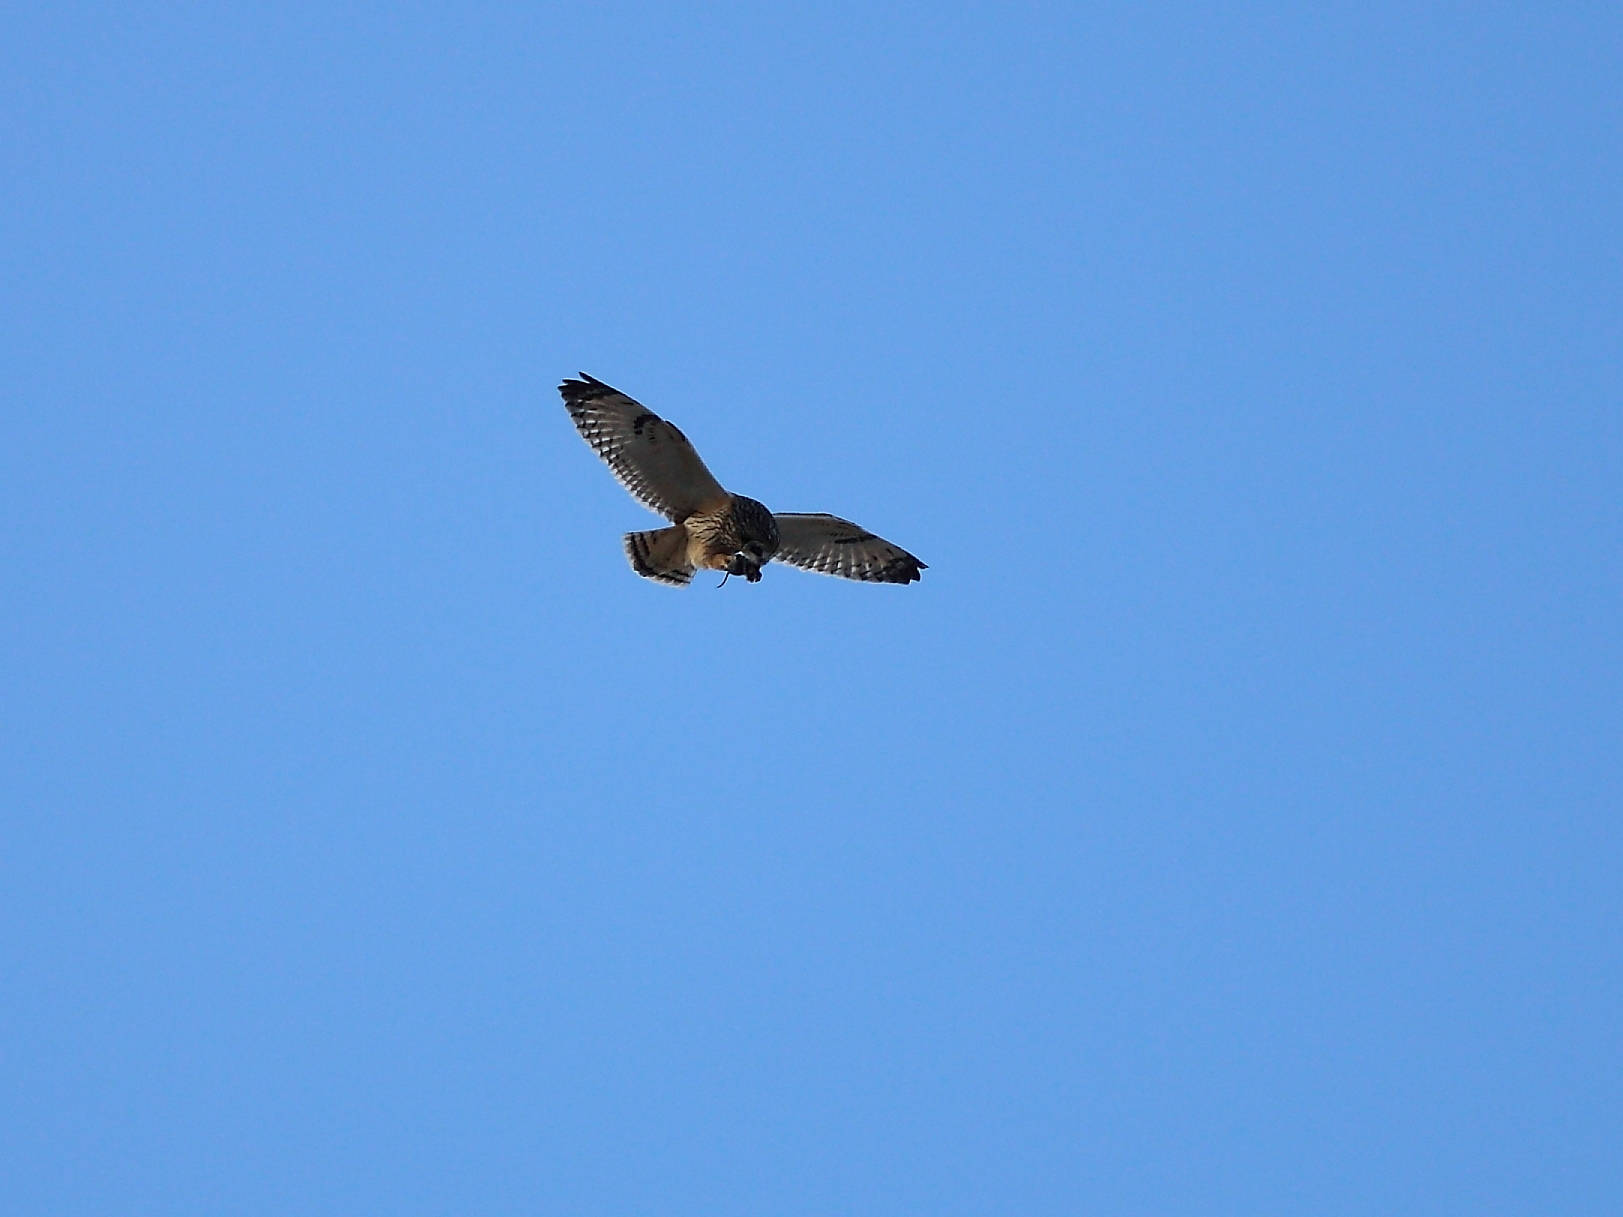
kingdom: Animalia
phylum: Chordata
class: Aves
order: Strigiformes
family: Strigidae
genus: Asio
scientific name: Asio flammeus
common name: Short-eared owl
